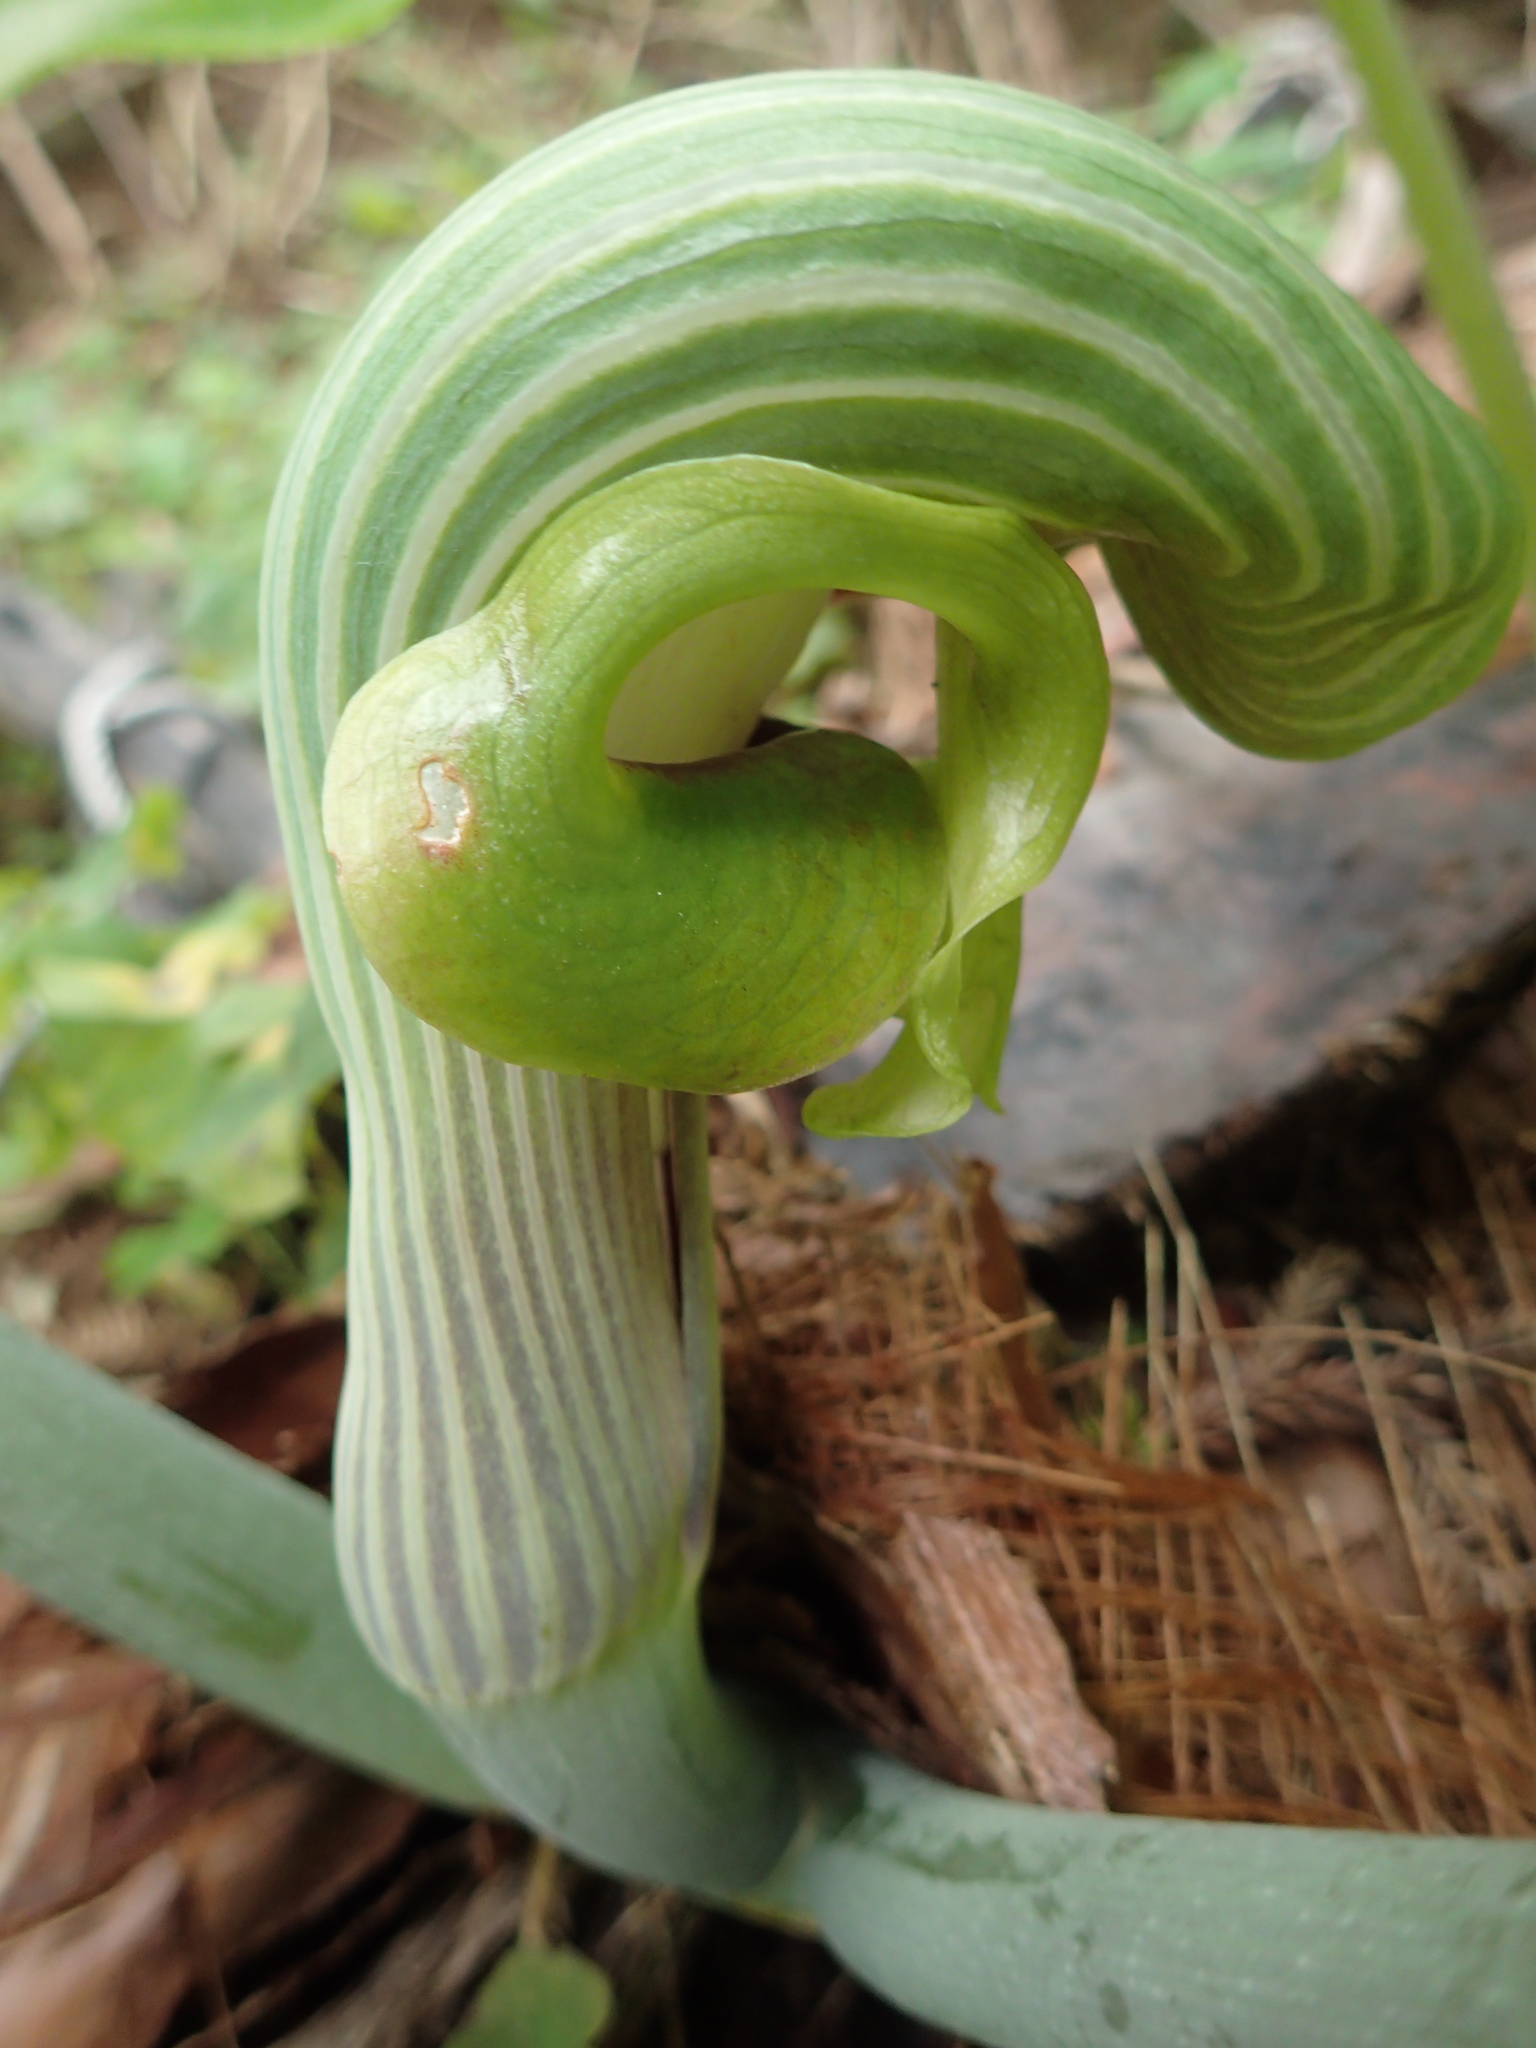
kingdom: Plantae
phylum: Tracheophyta
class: Liliopsida
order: Alismatales
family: Araceae
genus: Arisaema
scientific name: Arisaema ringens
